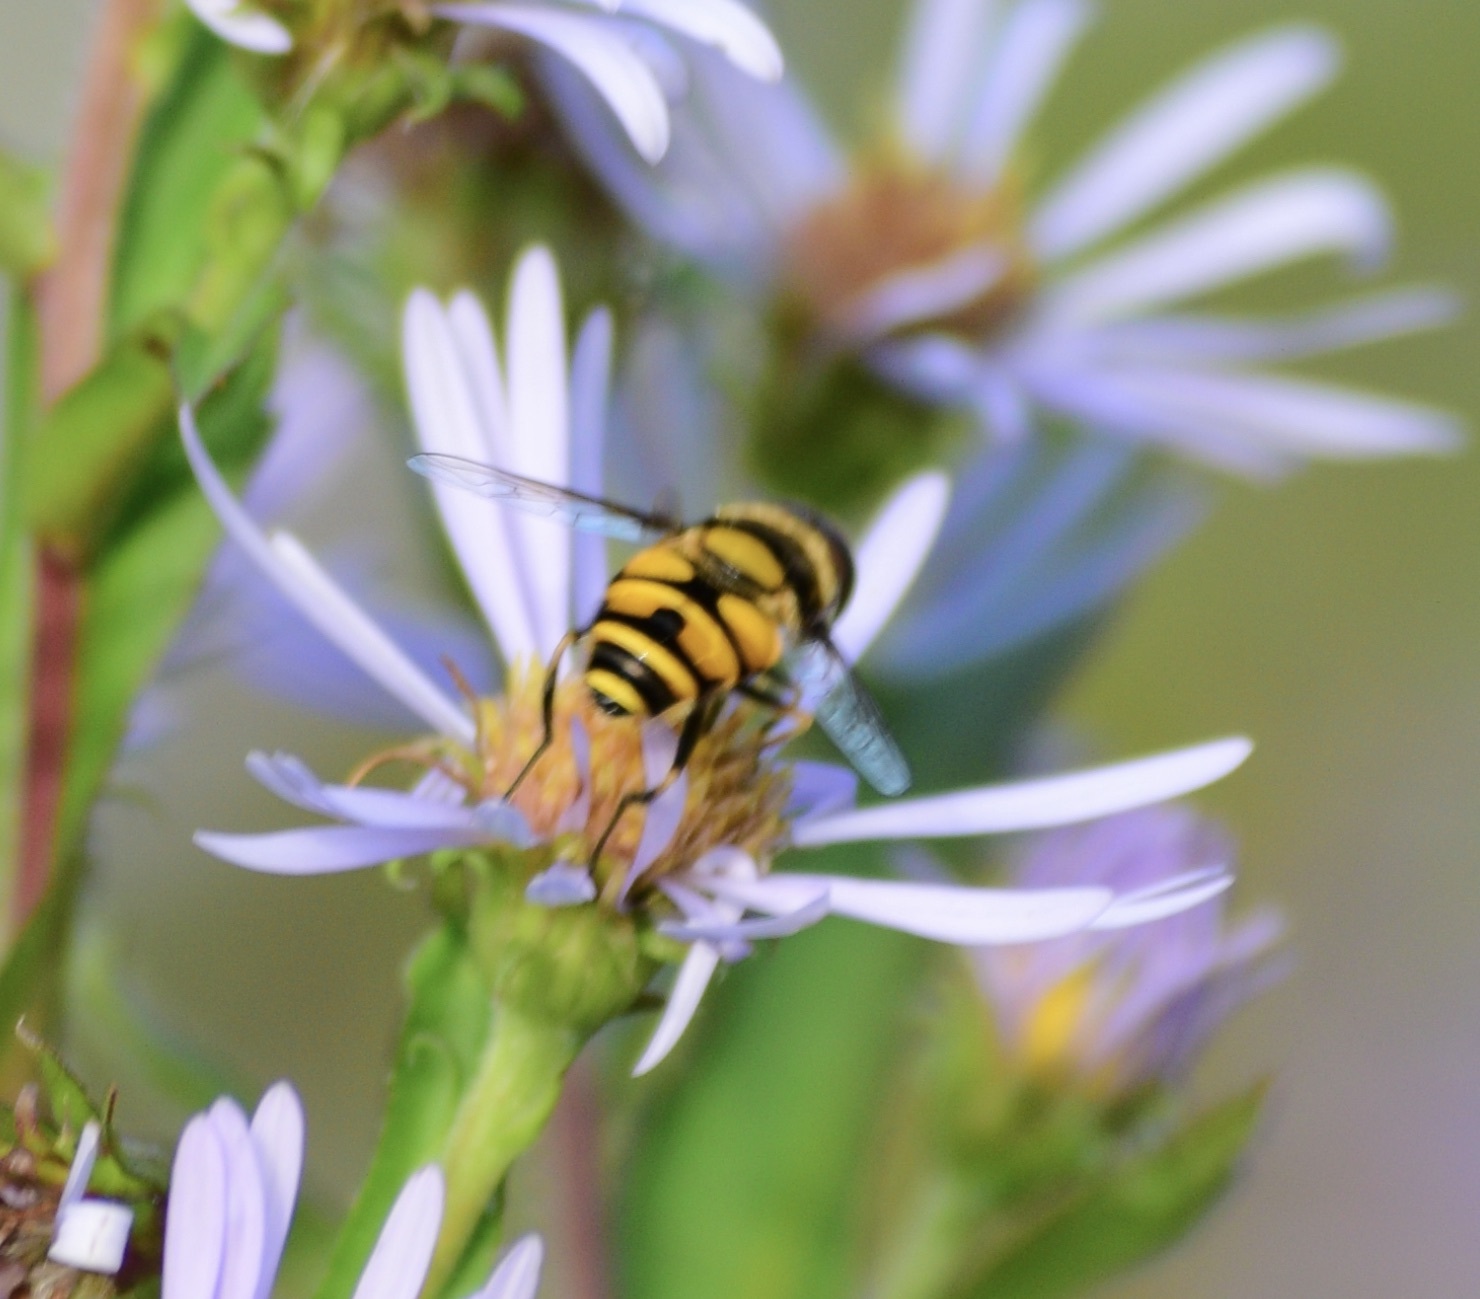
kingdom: Animalia
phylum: Arthropoda
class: Insecta
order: Diptera
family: Syrphidae
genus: Eristalis
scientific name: Eristalis transversa
